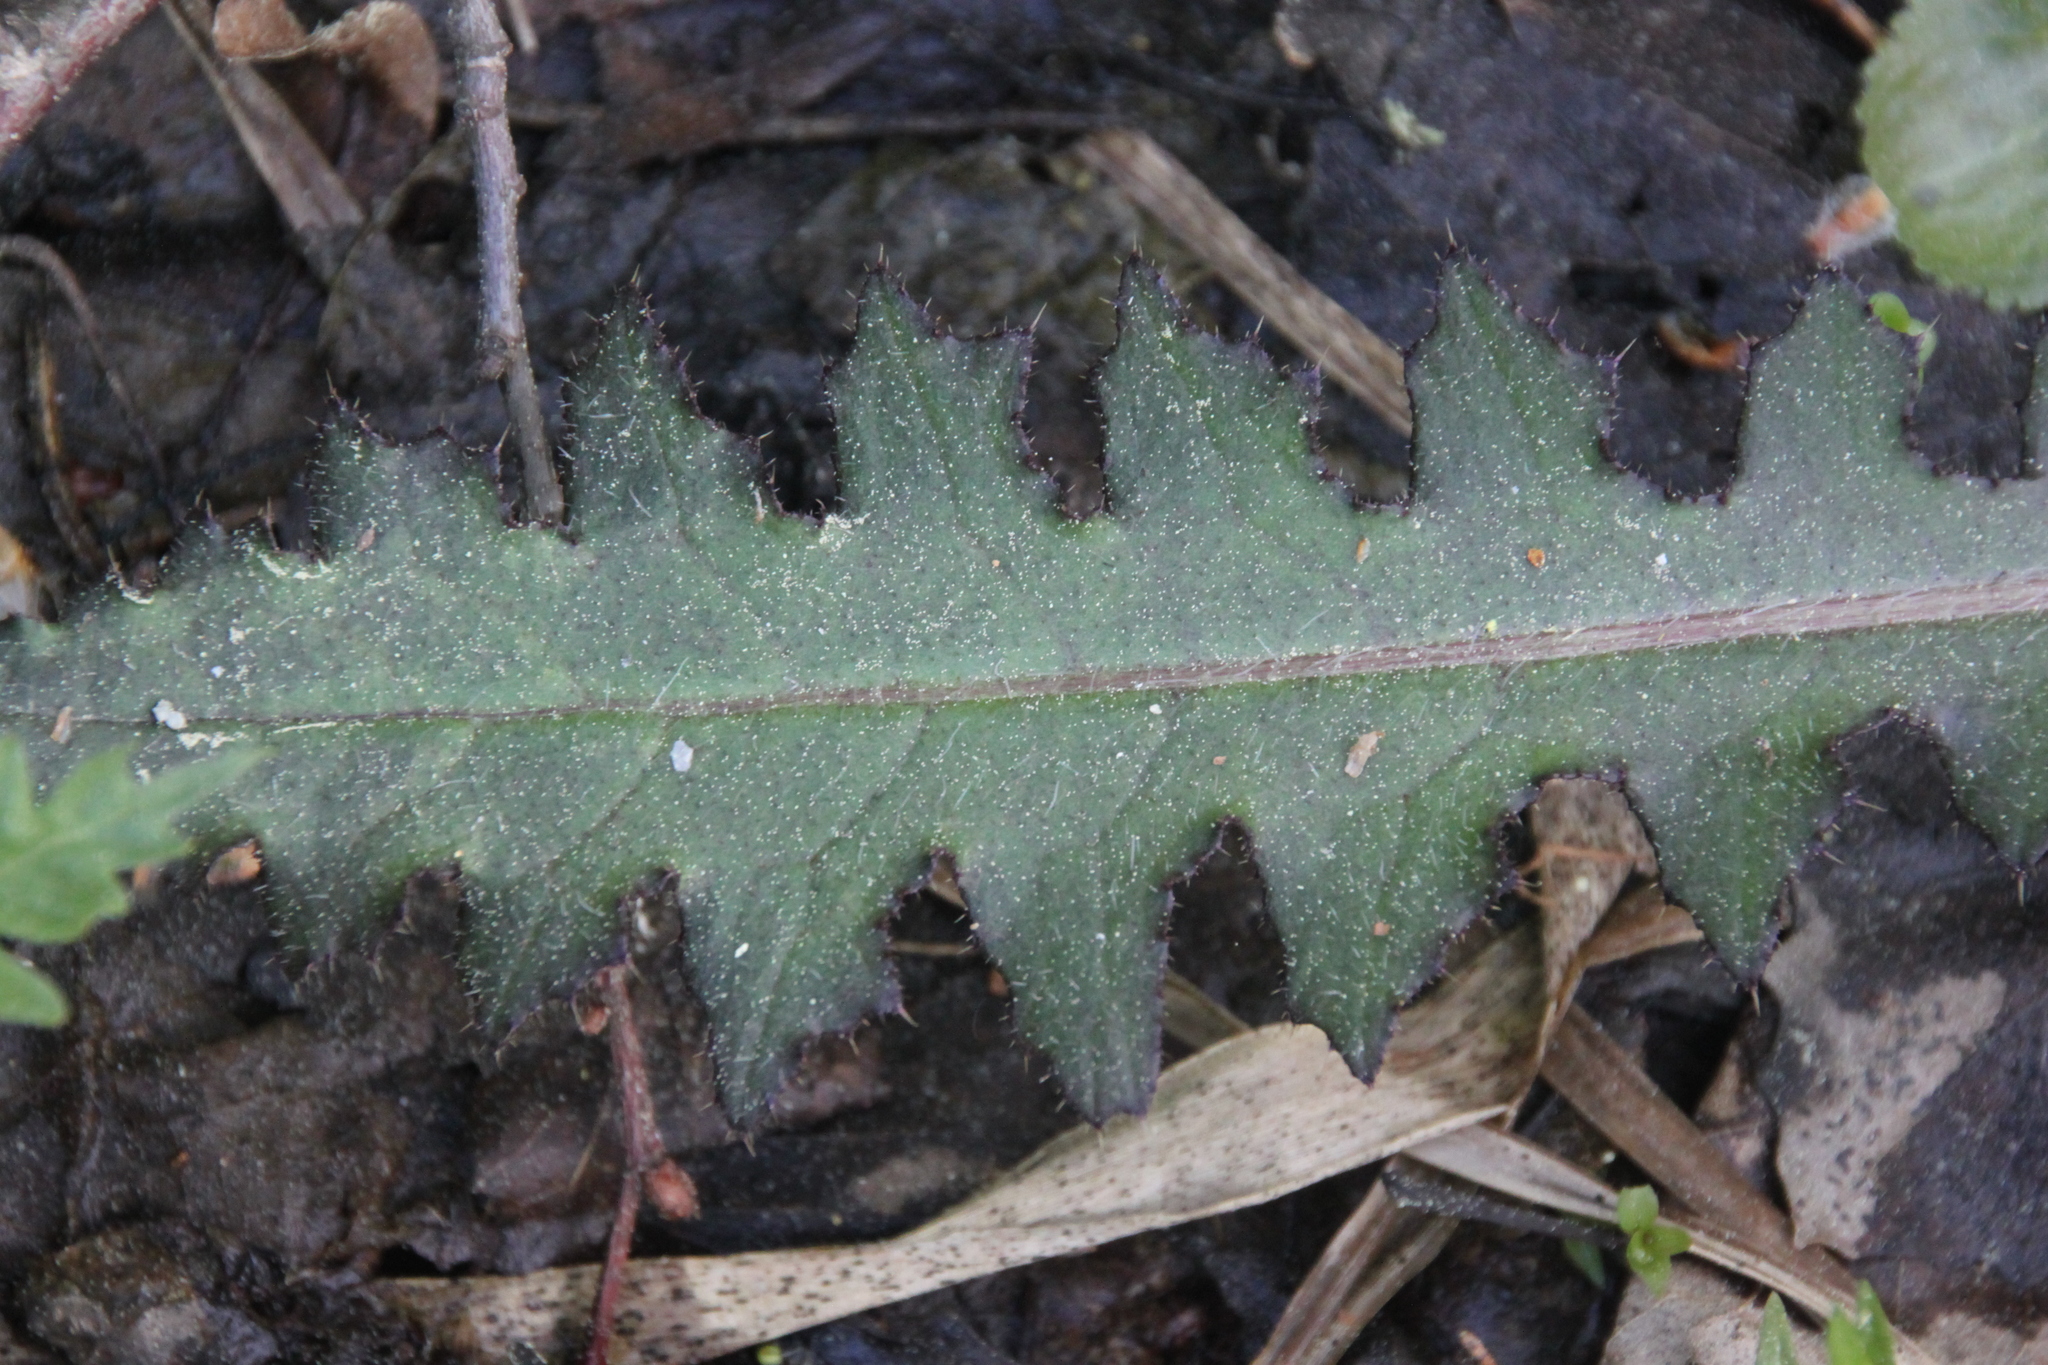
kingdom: Plantae
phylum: Tracheophyta
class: Magnoliopsida
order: Asterales
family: Asteraceae
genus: Cirsium
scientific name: Cirsium palustre
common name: Marsh thistle
